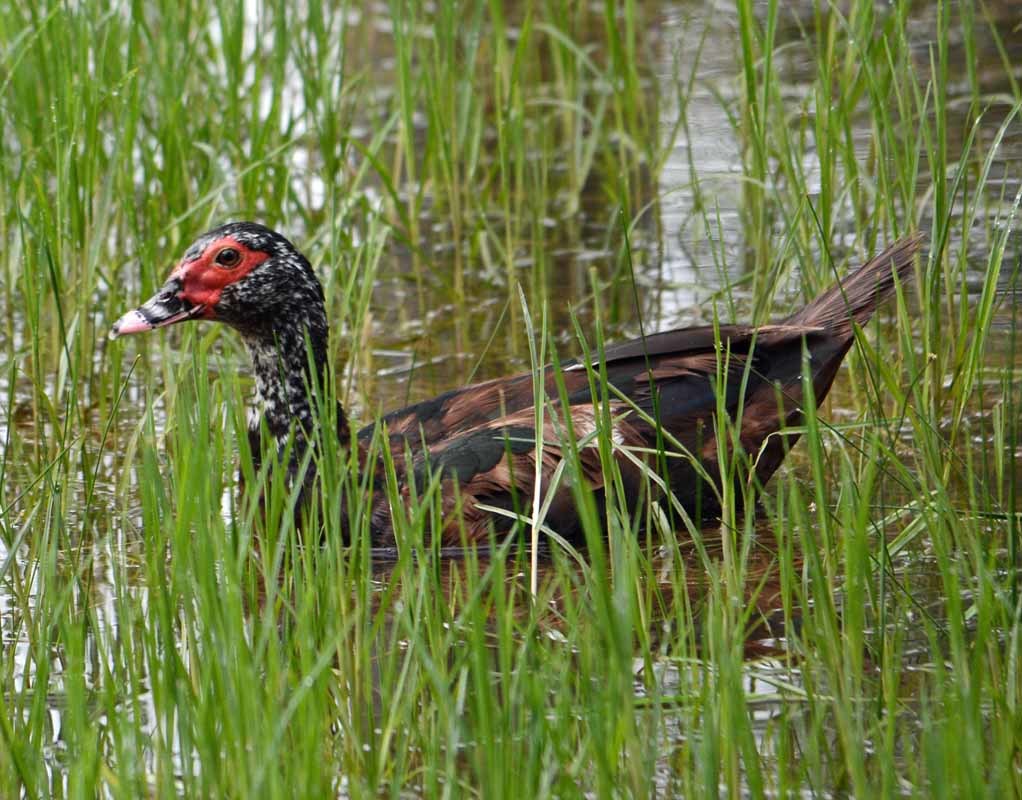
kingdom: Animalia
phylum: Chordata
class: Aves
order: Anseriformes
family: Anatidae
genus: Cairina
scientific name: Cairina moschata
